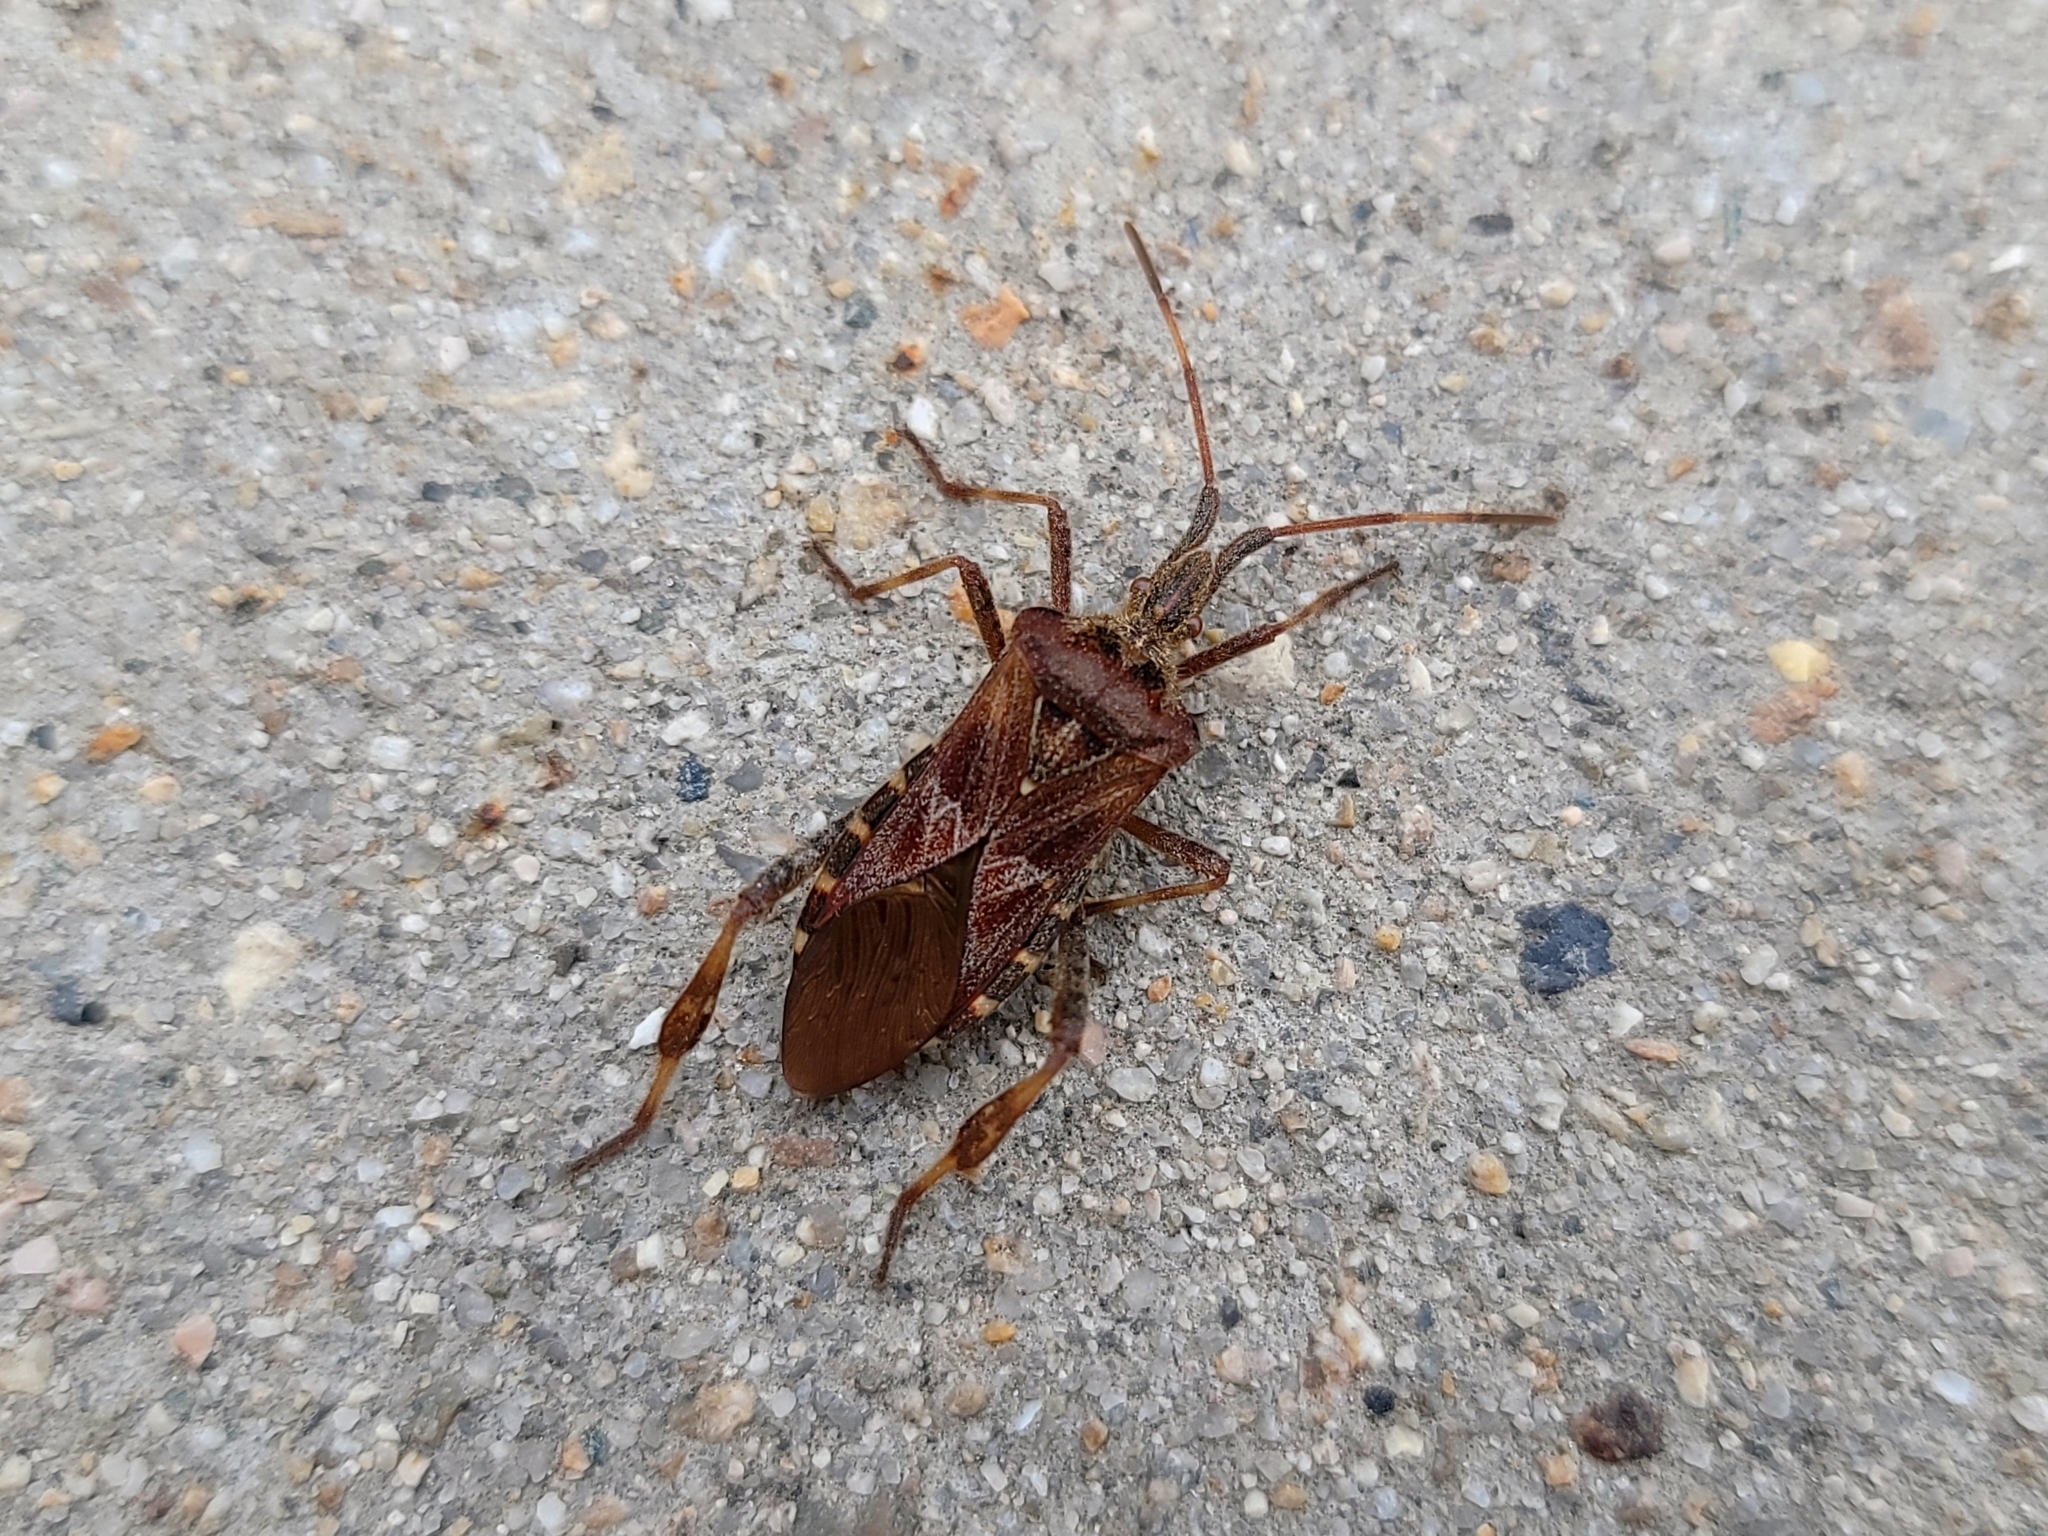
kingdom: Animalia
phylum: Arthropoda
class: Insecta
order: Hemiptera
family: Coreidae
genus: Leptoglossus
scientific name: Leptoglossus occidentalis
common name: Western conifer-seed bug
